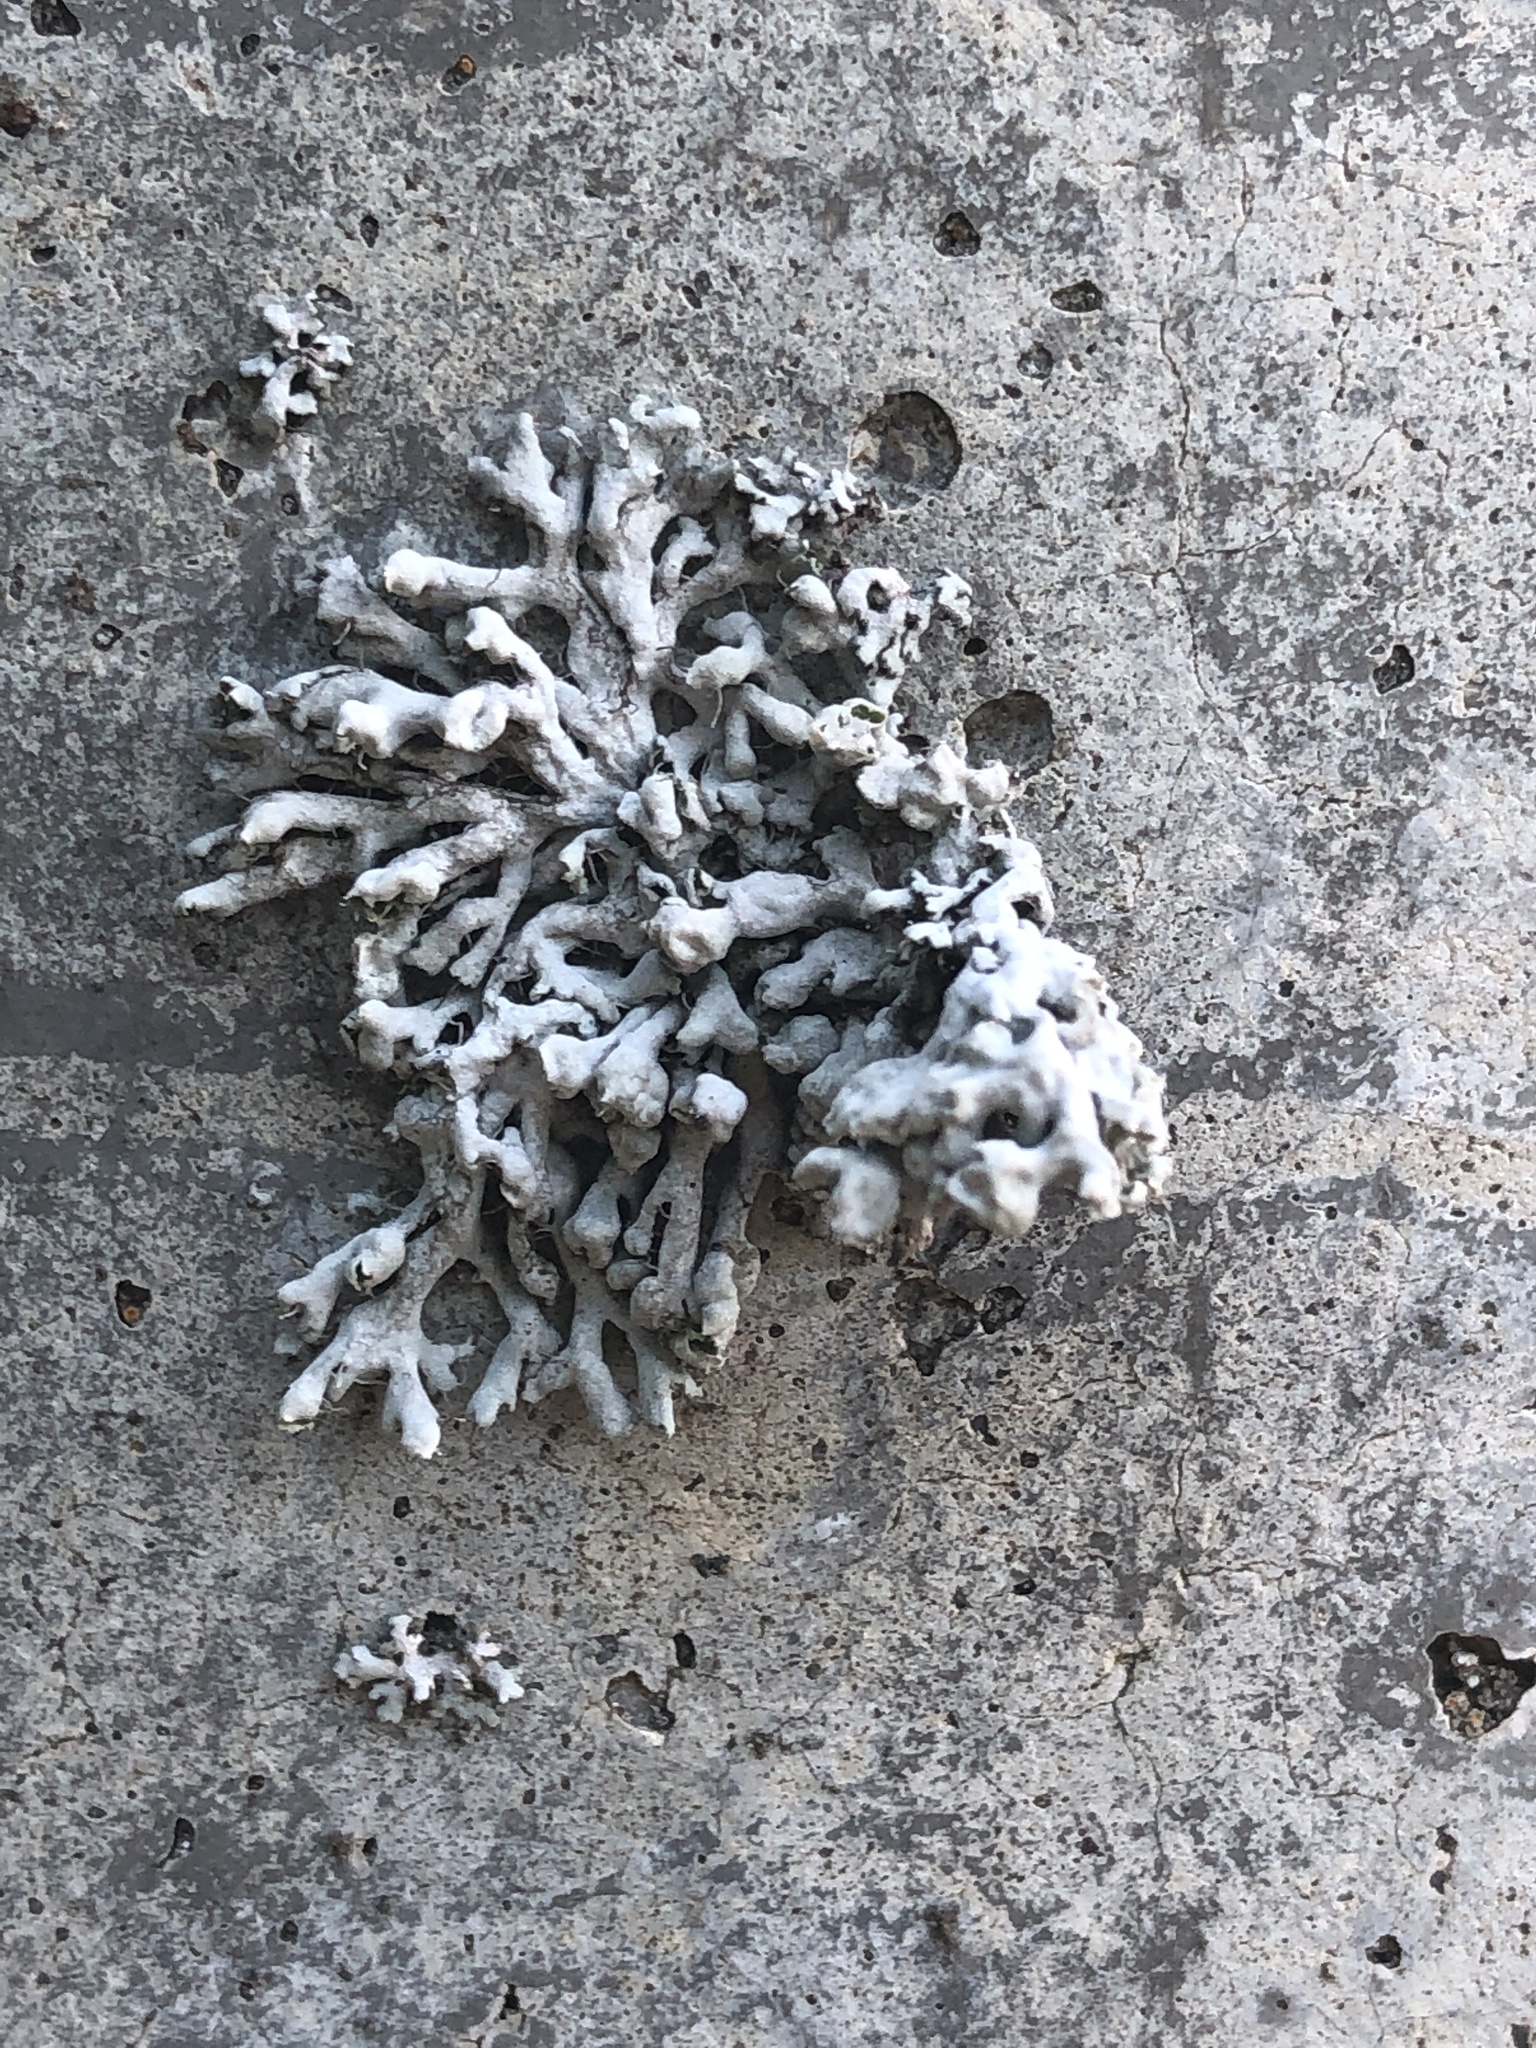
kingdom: Fungi
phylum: Ascomycota
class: Lecanoromycetes
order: Caliciales
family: Physciaceae
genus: Physcia
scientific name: Physcia adscendens
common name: Hooded rosette lichen
